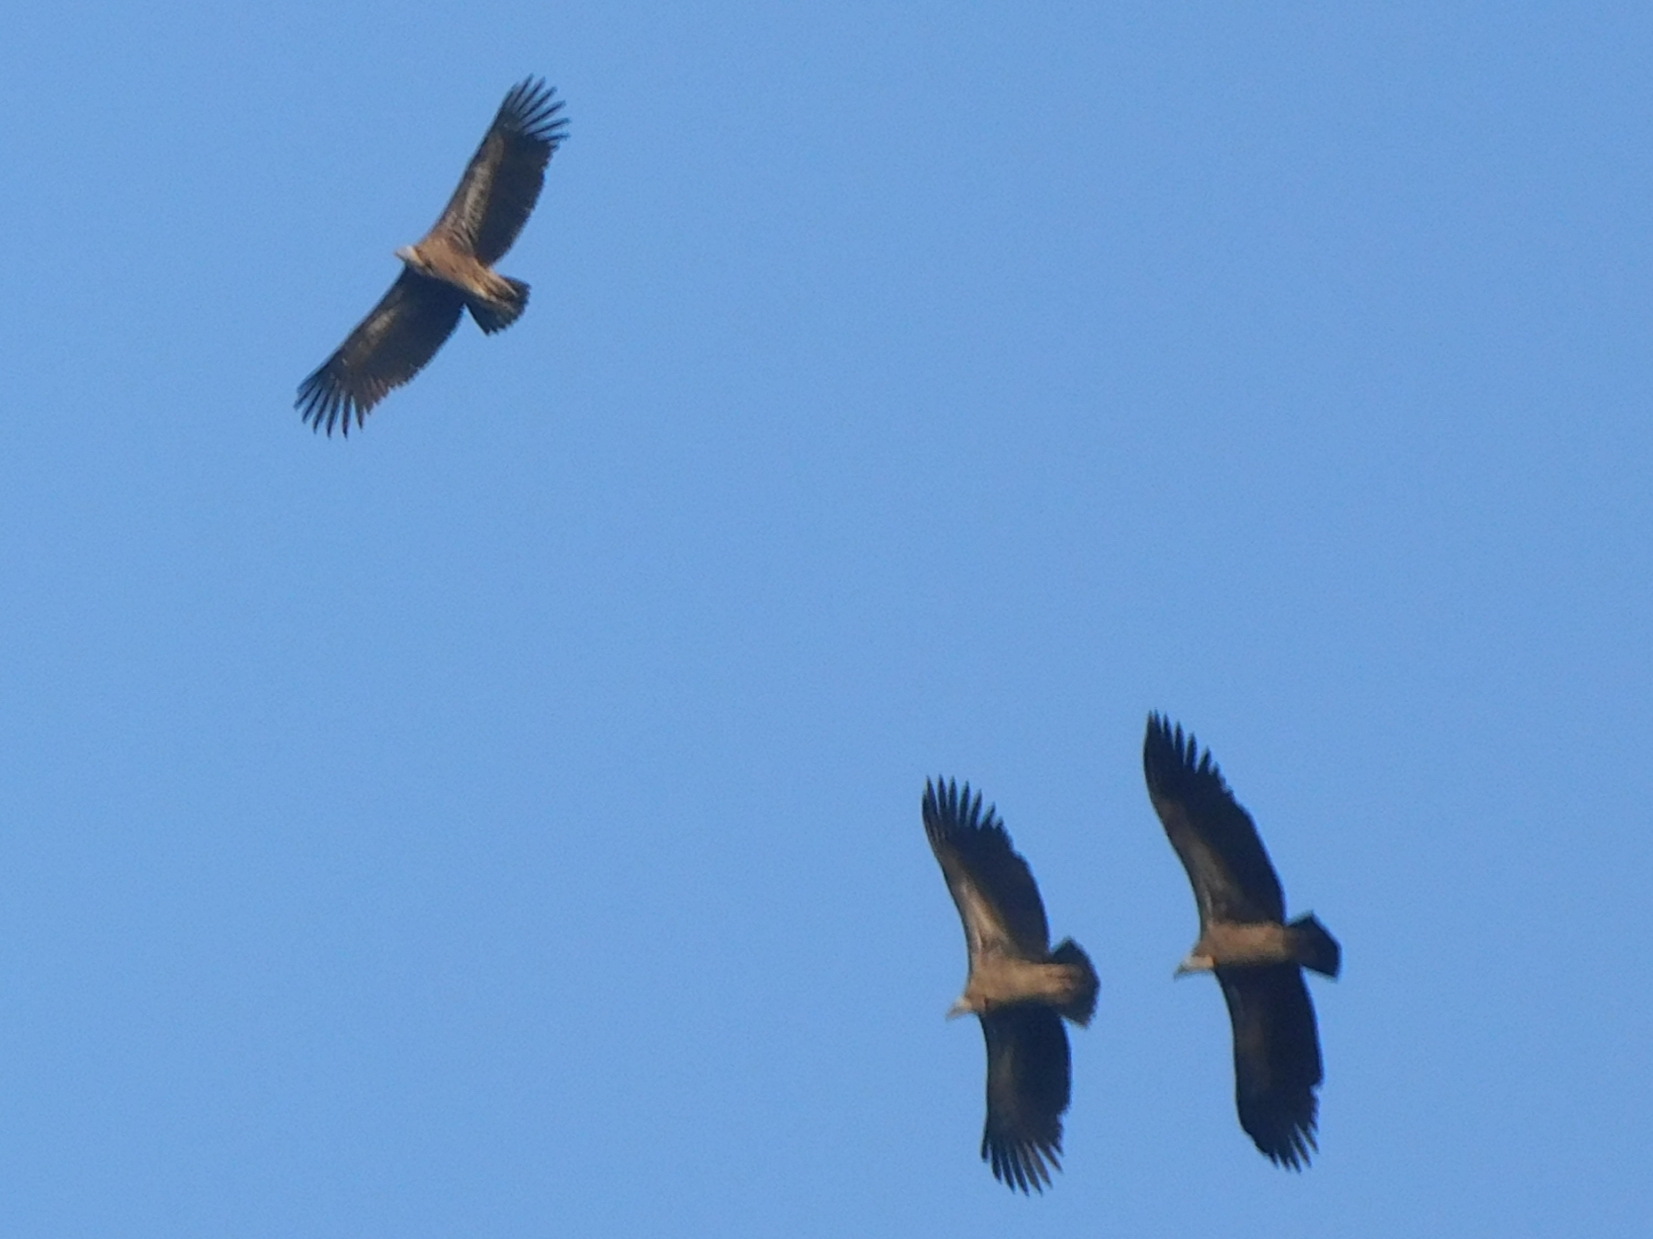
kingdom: Animalia
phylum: Chordata
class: Aves
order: Accipitriformes
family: Accipitridae
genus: Gyps
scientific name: Gyps himalayensis
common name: Himalayan griffon
